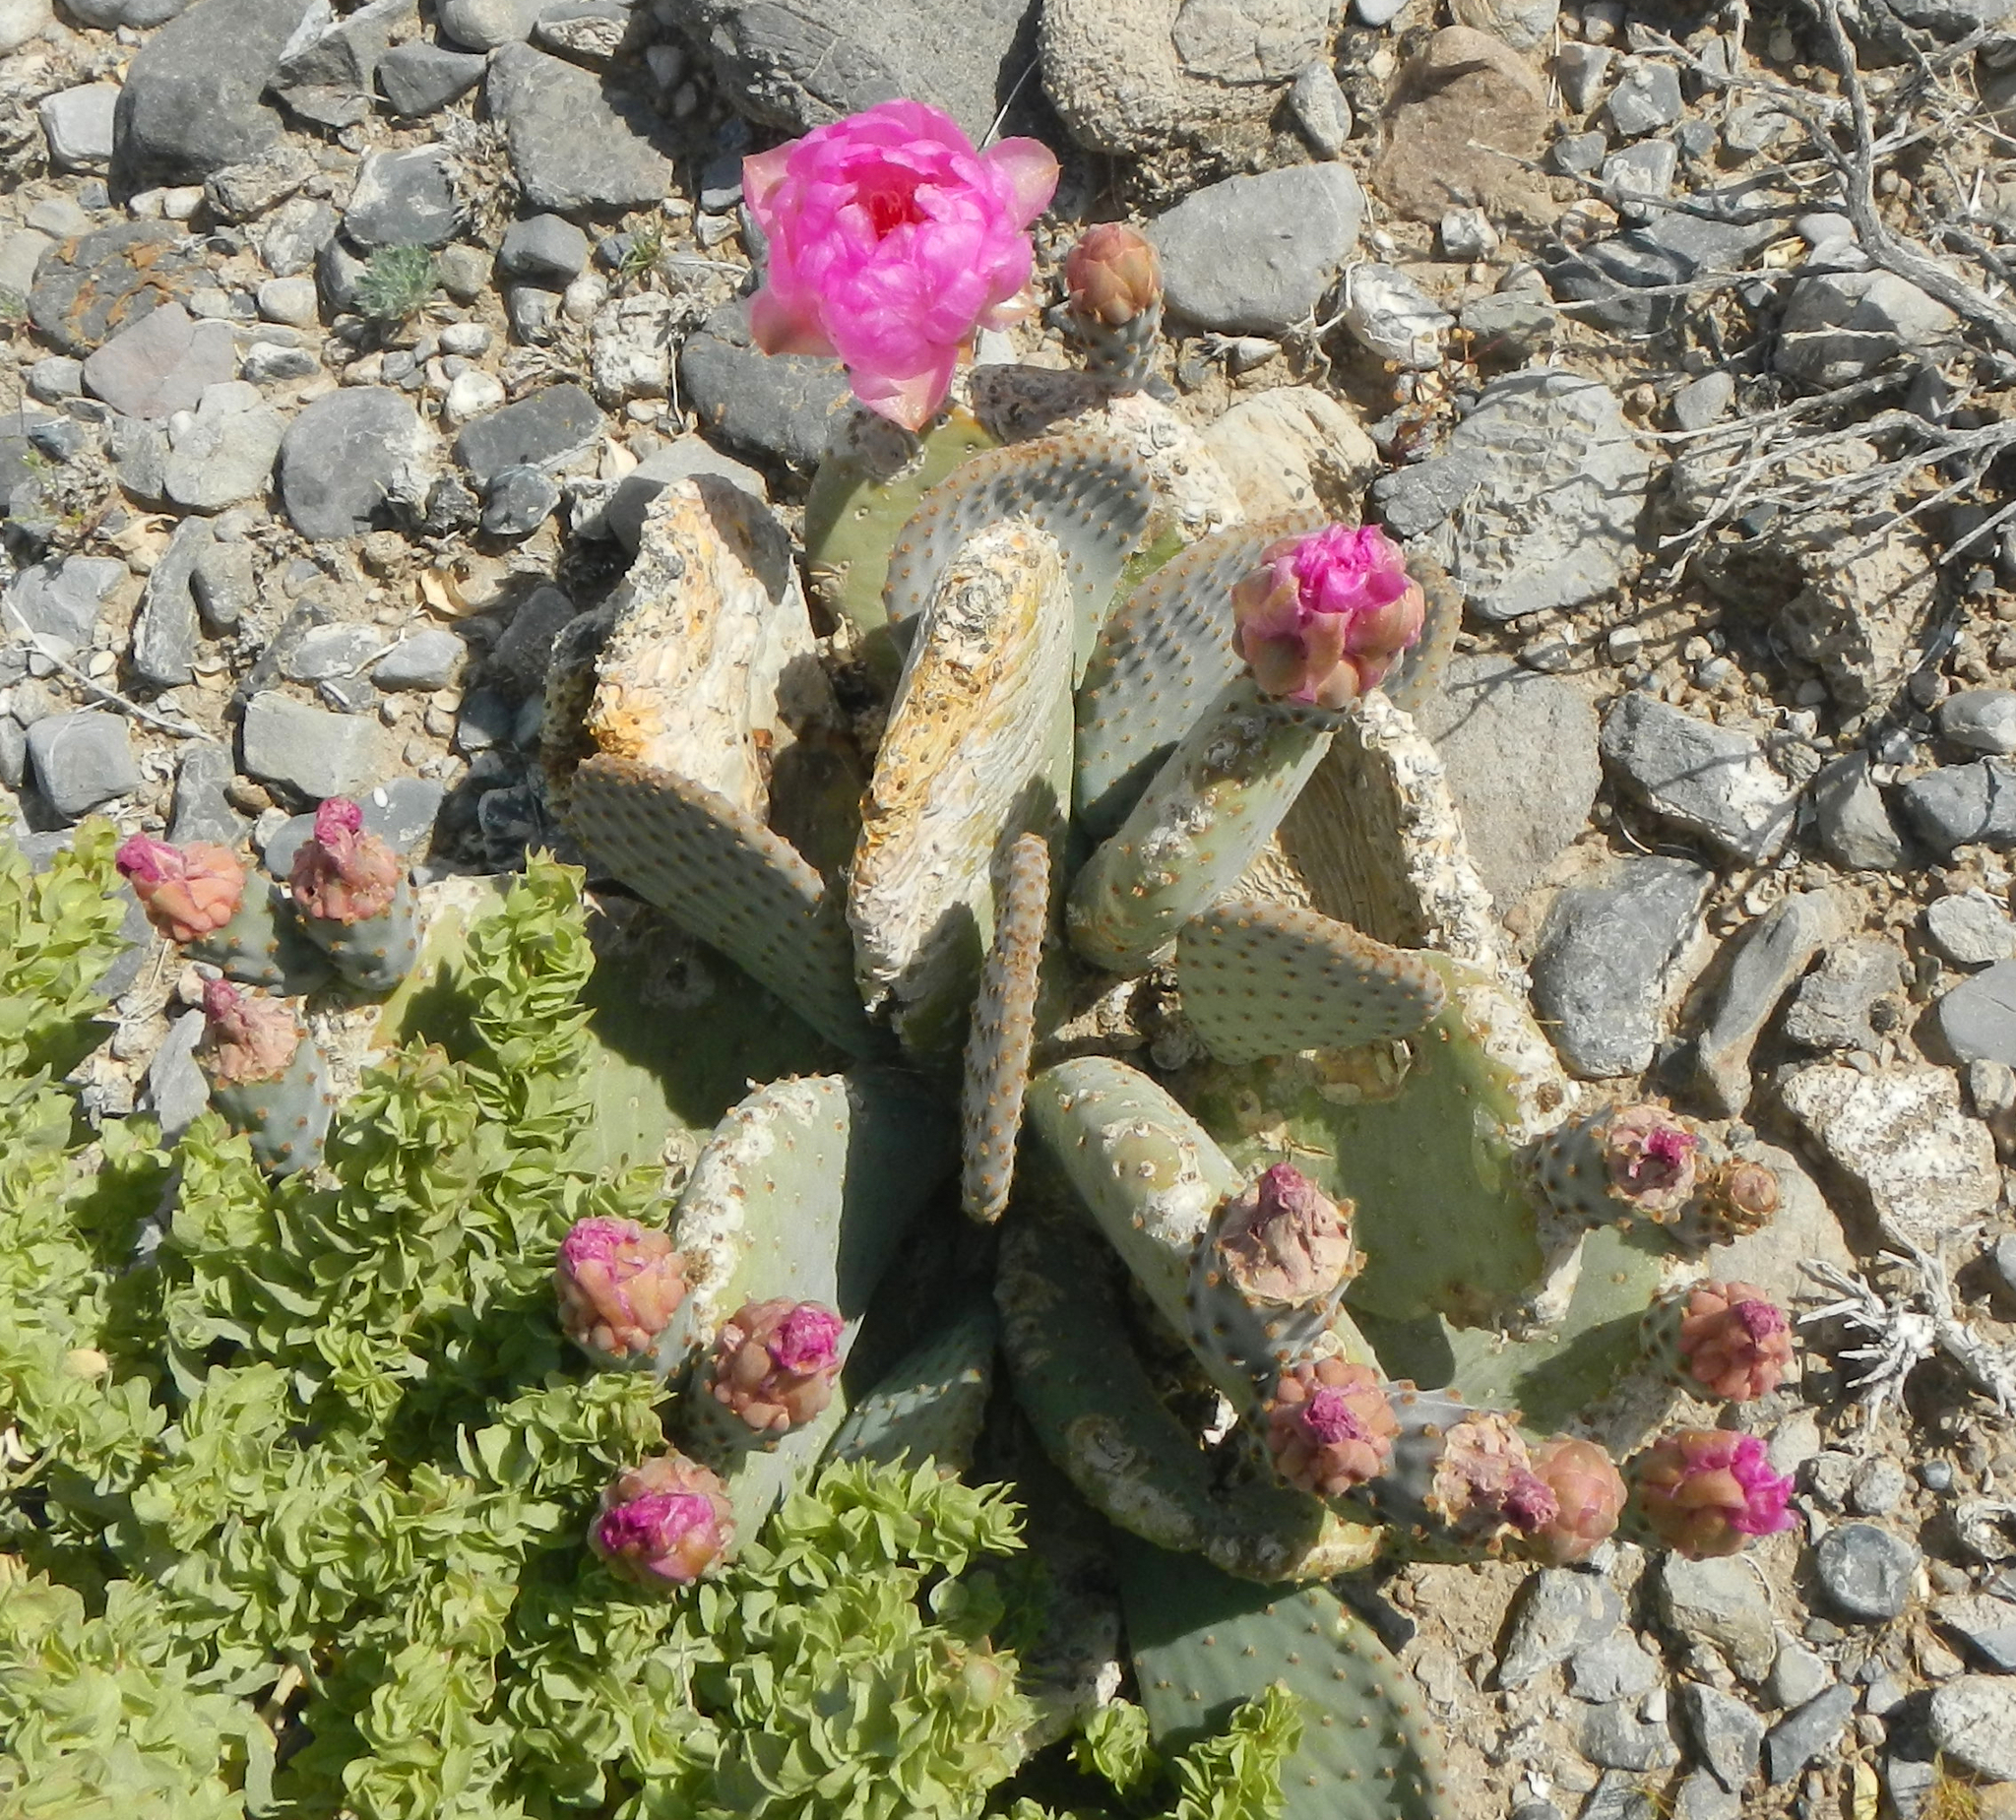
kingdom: Plantae
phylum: Tracheophyta
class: Magnoliopsida
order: Caryophyllales
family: Cactaceae
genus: Opuntia
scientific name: Opuntia basilaris
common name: Beavertail prickly-pear
